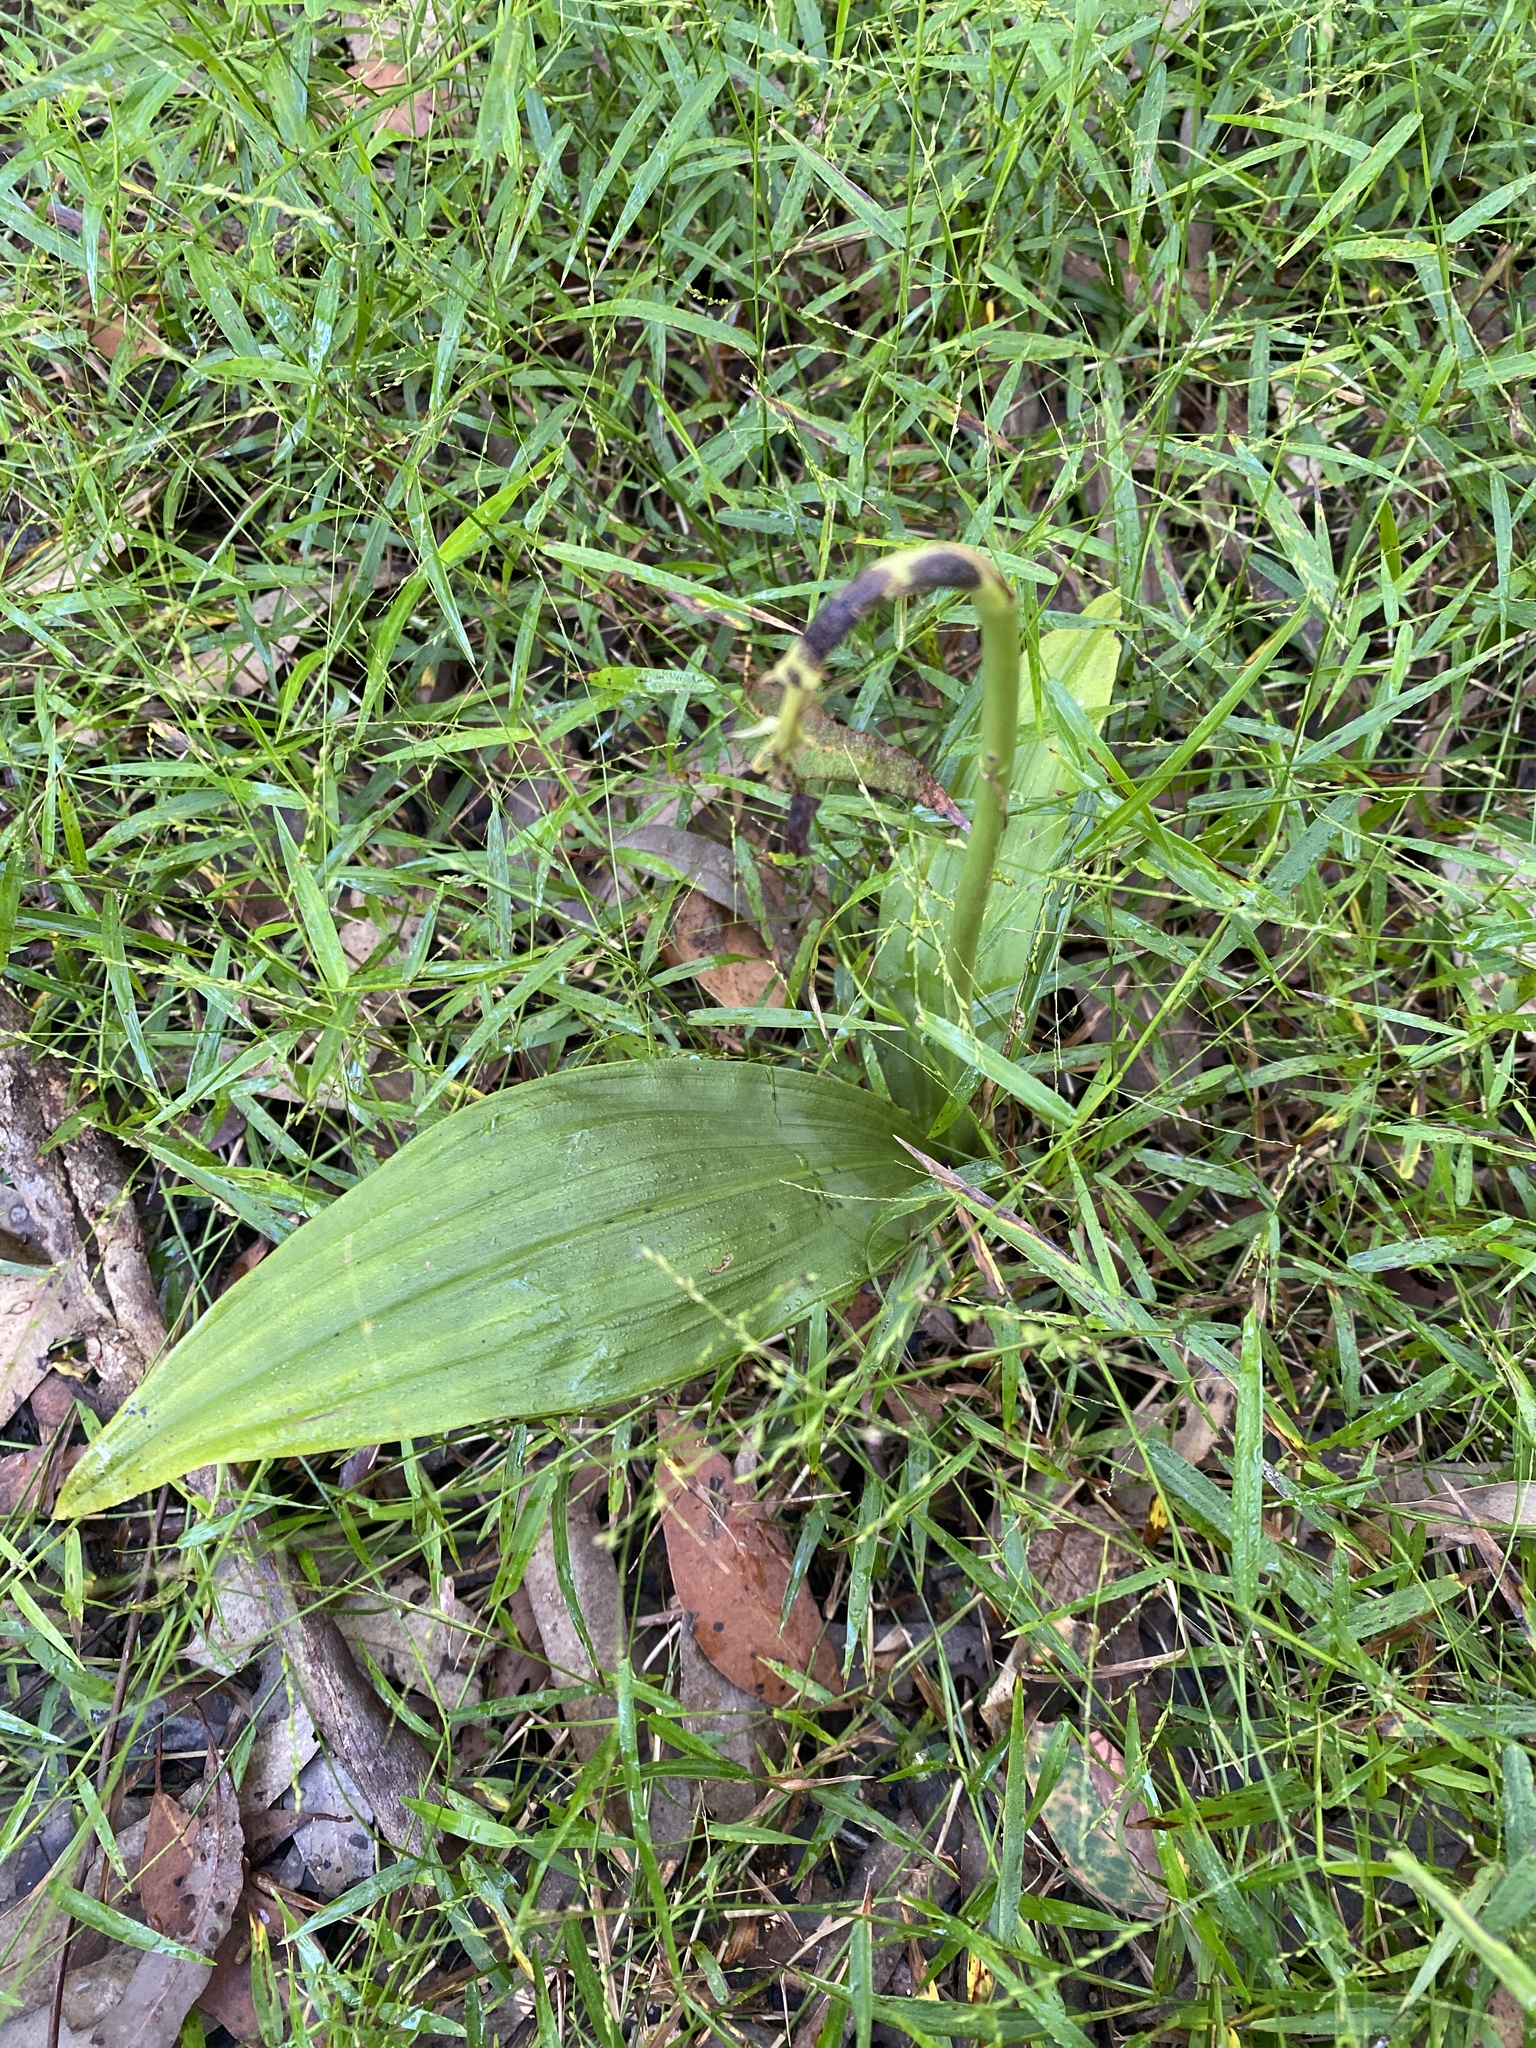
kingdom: Plantae
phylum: Tracheophyta
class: Liliopsida
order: Asparagales
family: Orchidaceae
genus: Eulophia
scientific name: Eulophia cernua
